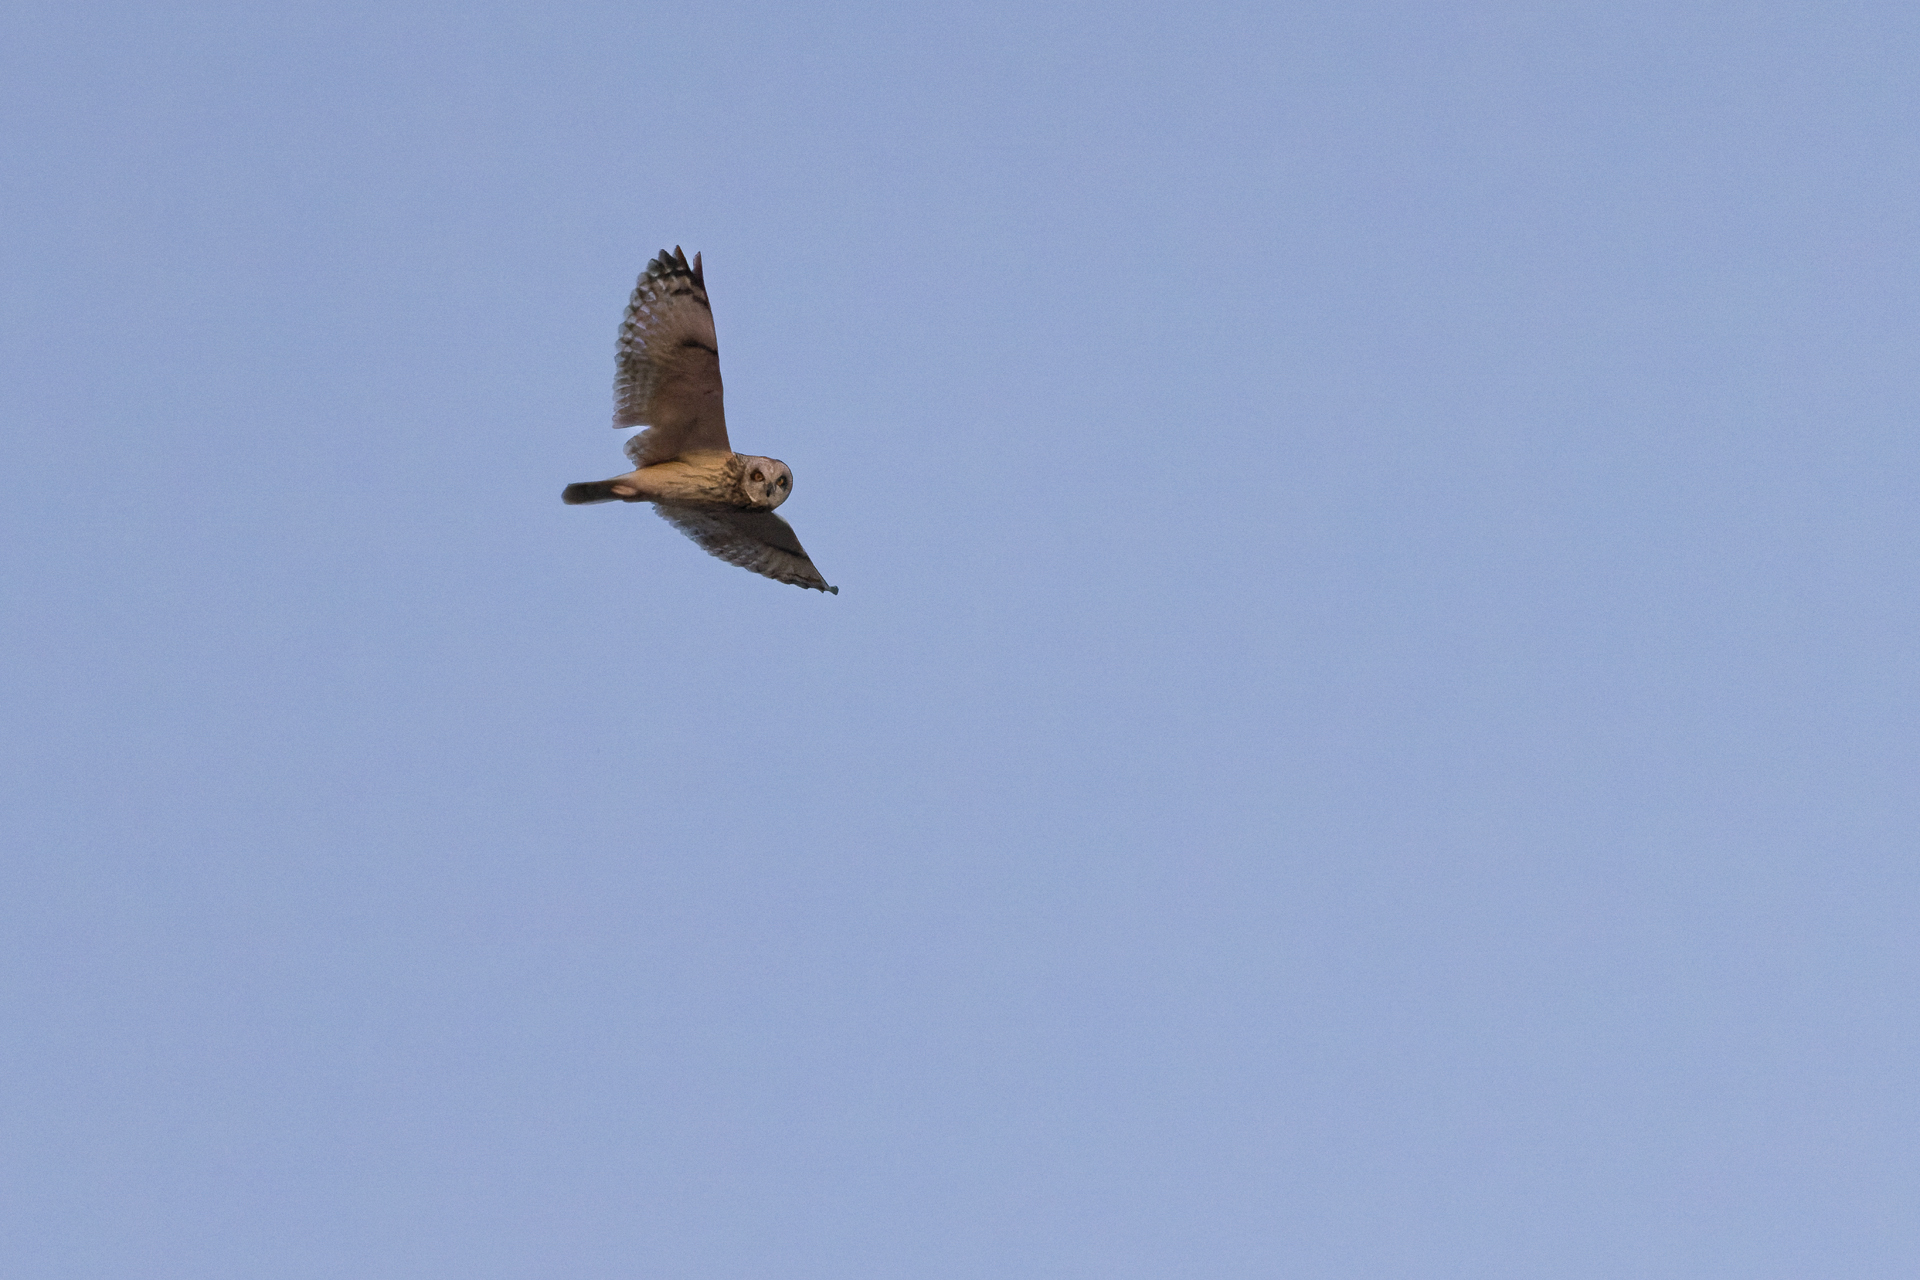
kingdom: Animalia
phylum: Chordata
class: Aves
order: Strigiformes
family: Strigidae
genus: Asio
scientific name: Asio flammeus
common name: Short-eared owl
